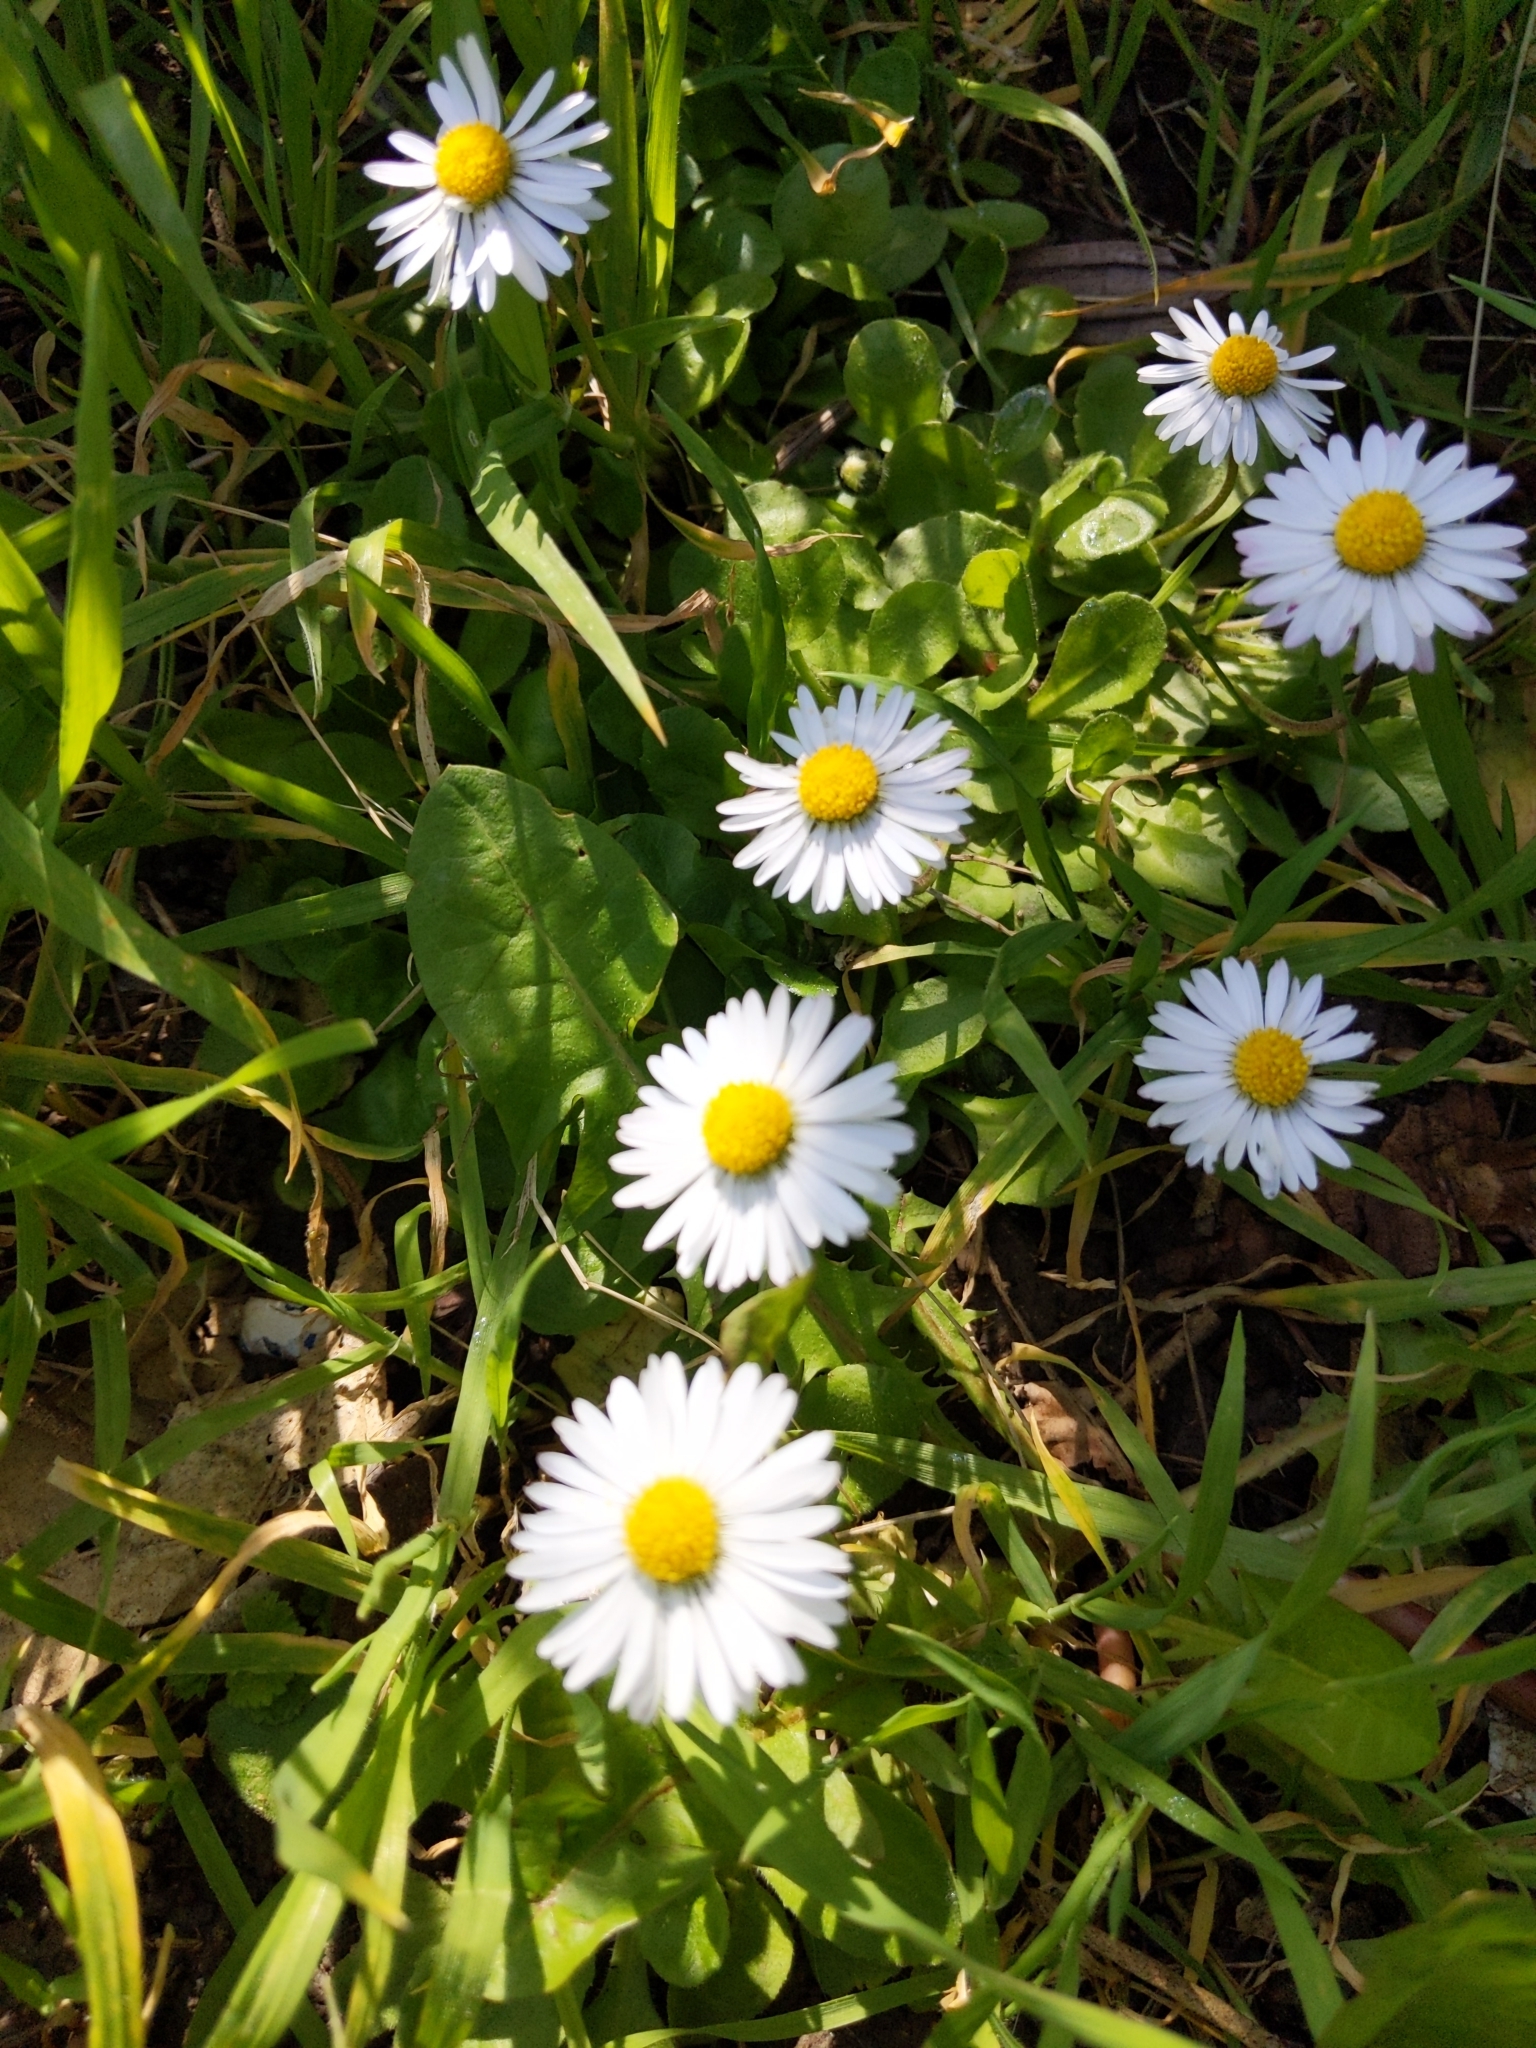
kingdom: Plantae
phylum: Tracheophyta
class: Magnoliopsida
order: Asterales
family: Asteraceae
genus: Bellis
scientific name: Bellis perennis
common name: Lawndaisy
